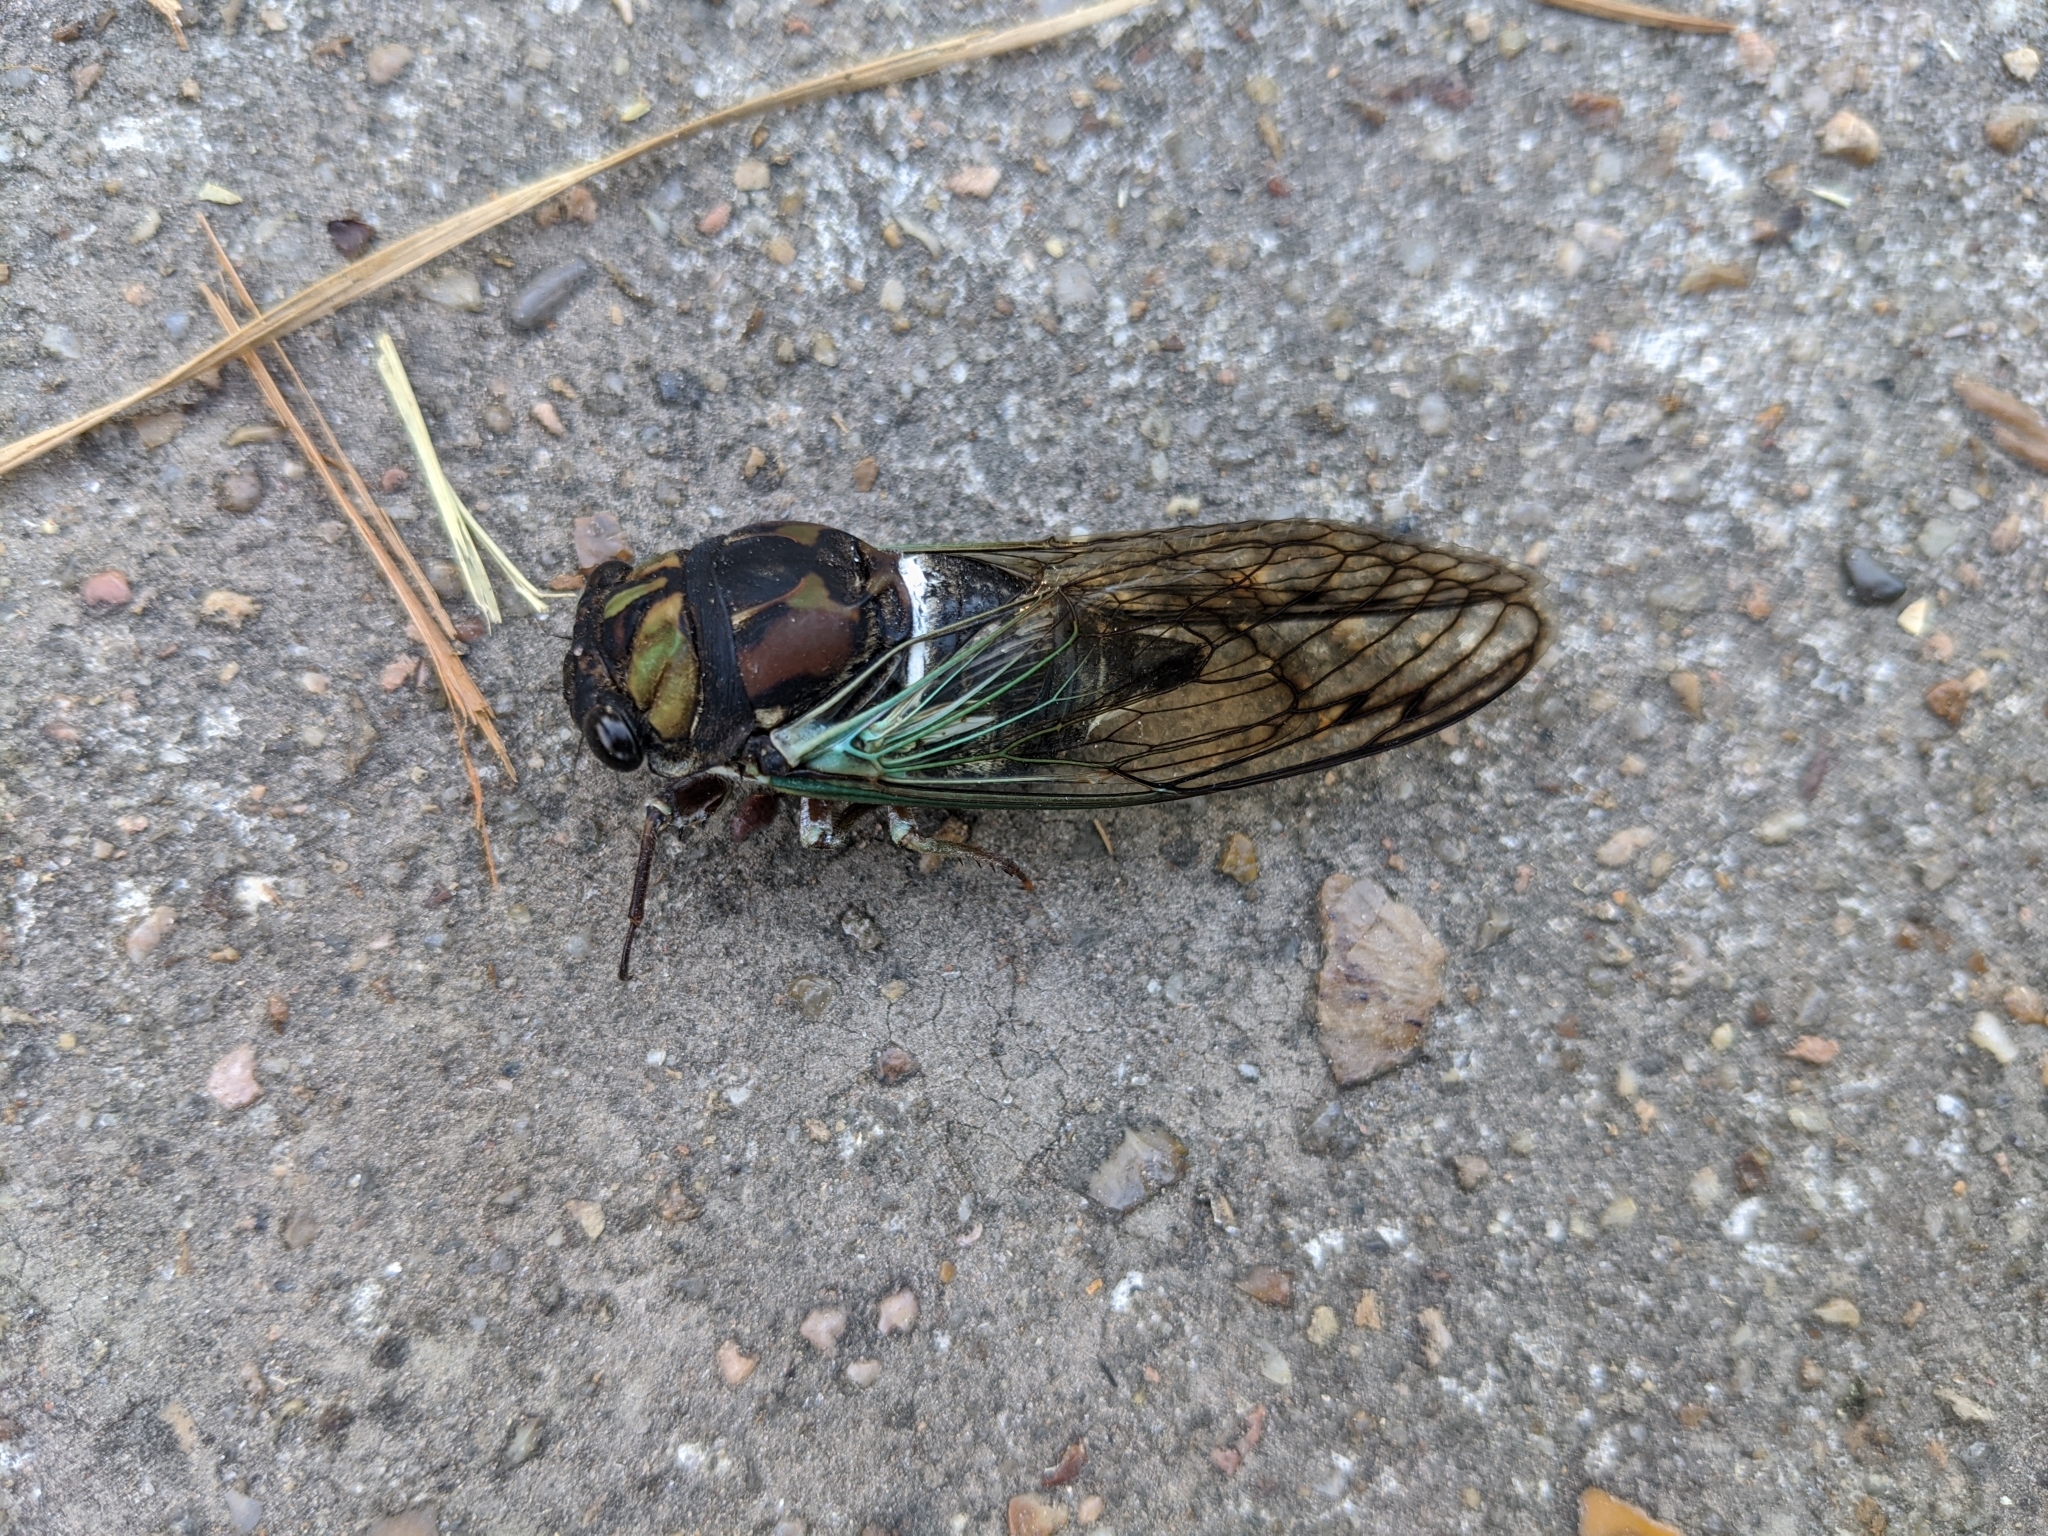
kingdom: Animalia
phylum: Arthropoda
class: Insecta
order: Hemiptera
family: Cicadidae
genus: Neotibicen
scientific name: Neotibicen lyricen
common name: Lyric cicada
